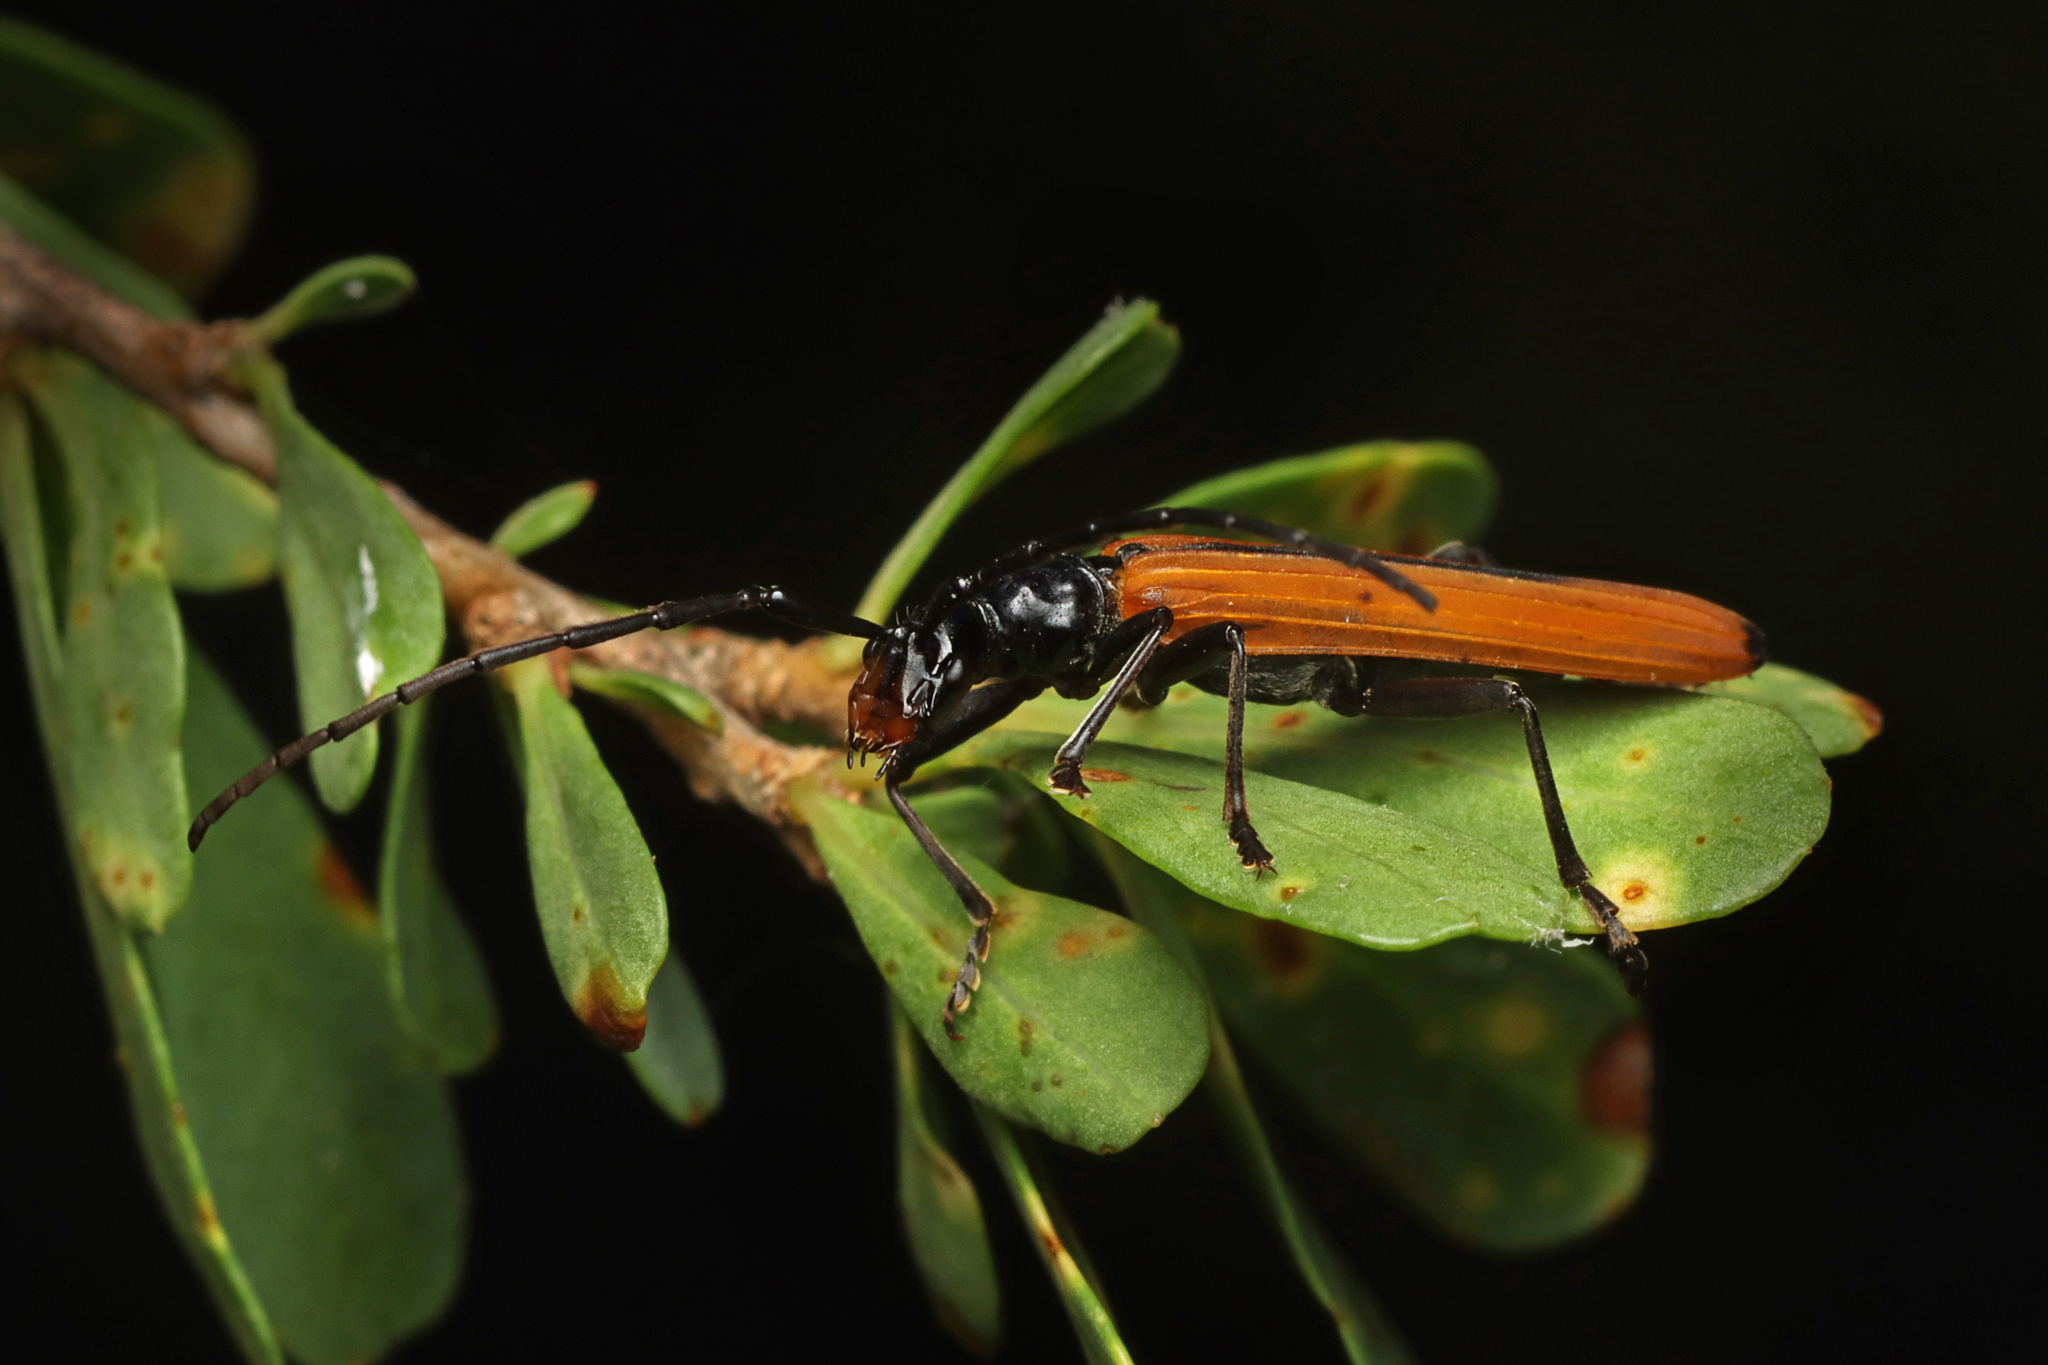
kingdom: Animalia
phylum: Arthropoda
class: Insecta
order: Coleoptera
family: Cerambycidae
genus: Stenoderus
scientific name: Stenoderus suturalis
